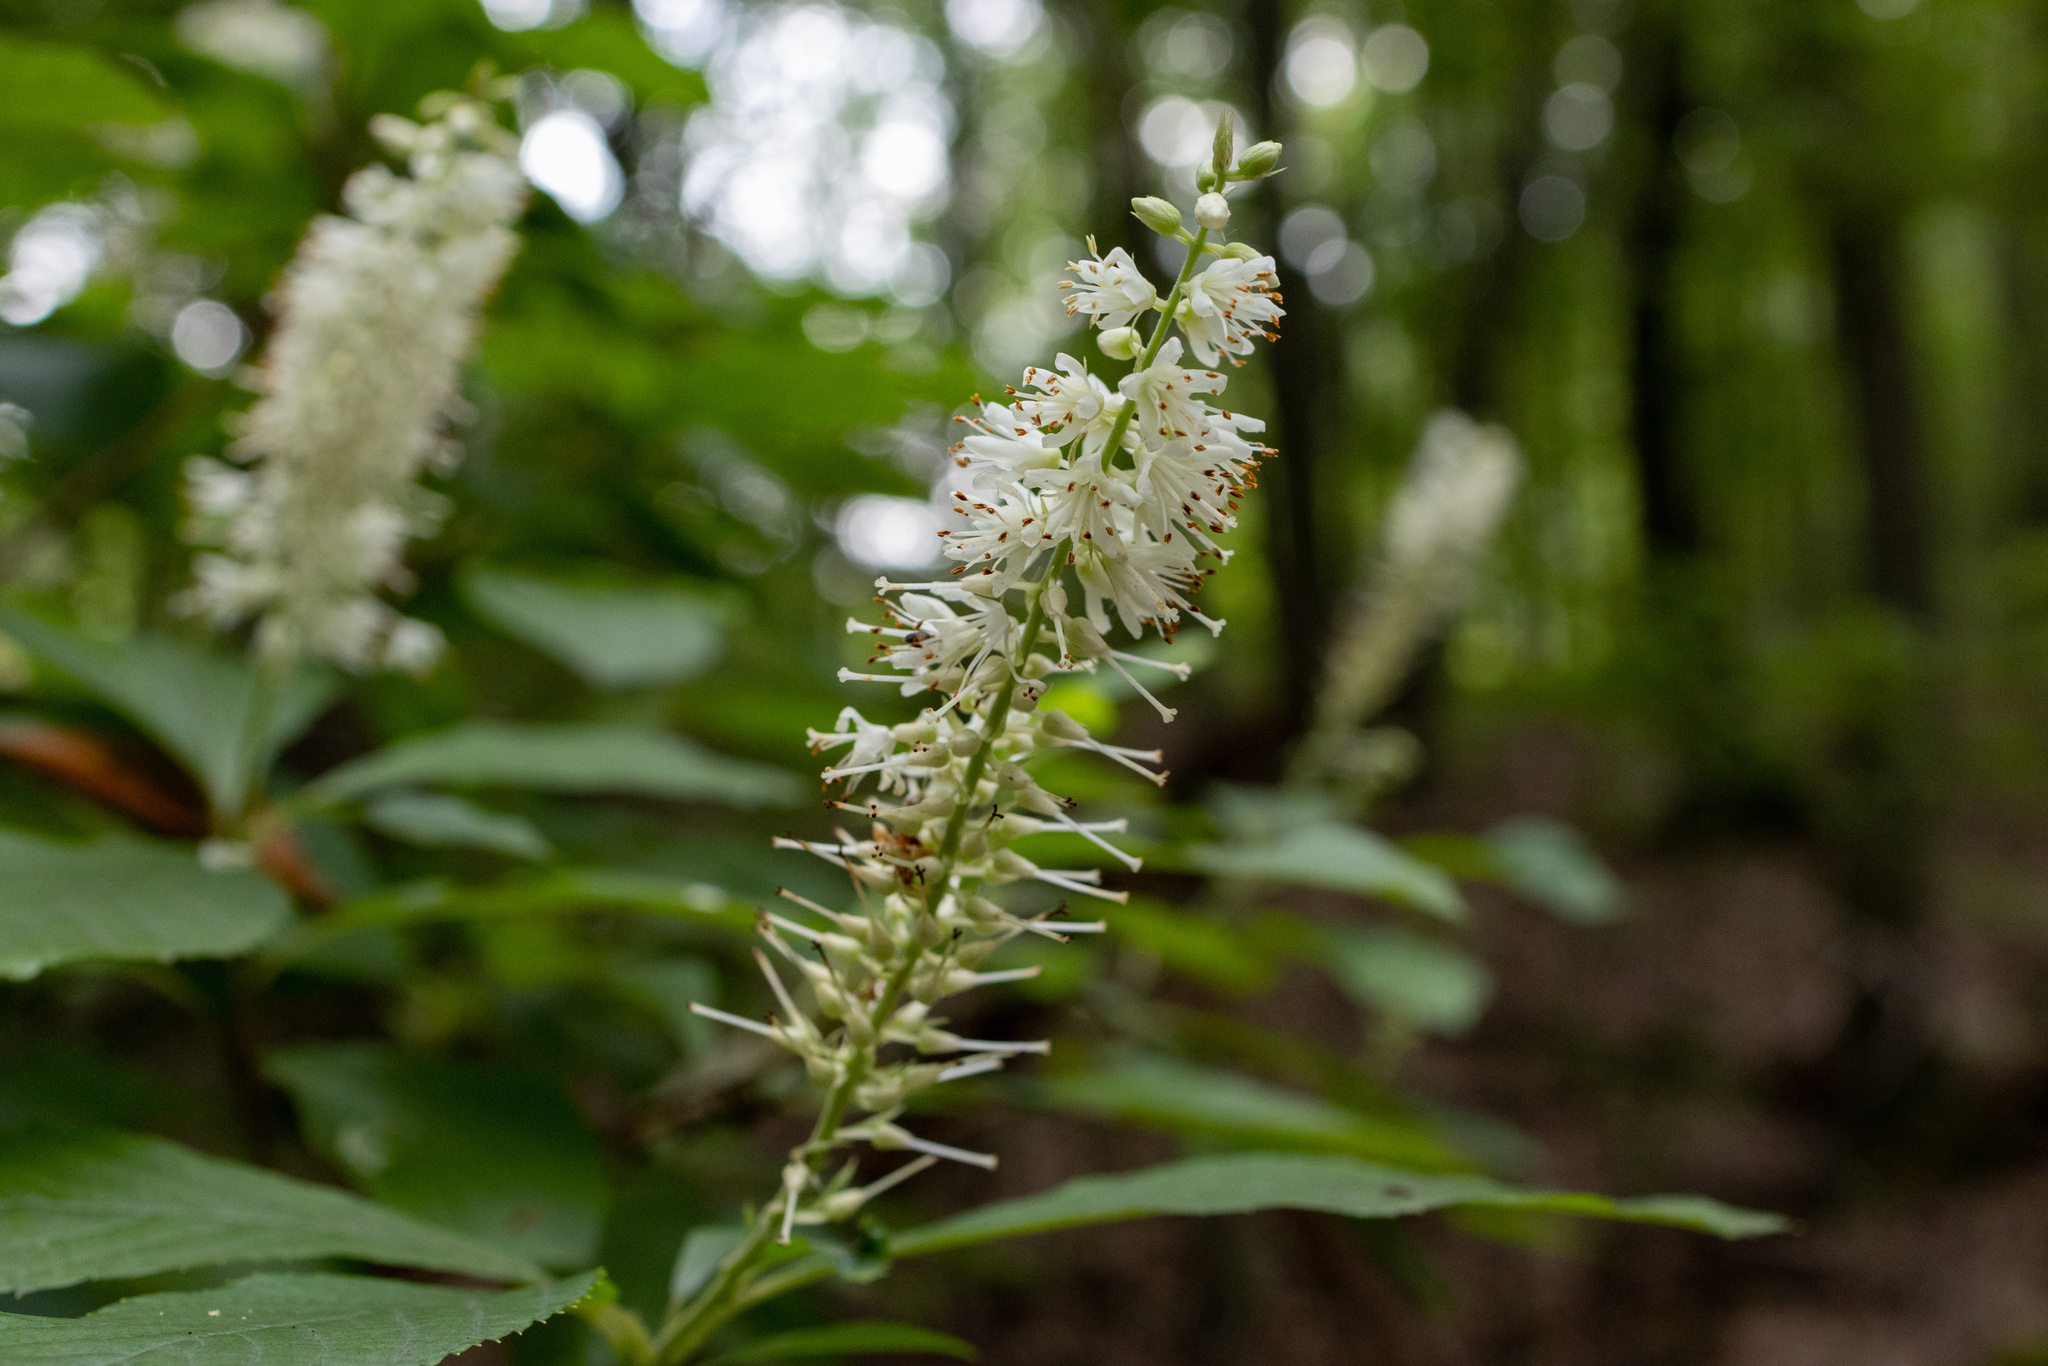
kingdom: Plantae
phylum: Tracheophyta
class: Magnoliopsida
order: Ericales
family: Clethraceae
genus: Clethra
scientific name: Clethra alnifolia
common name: Sweet pepperbush
